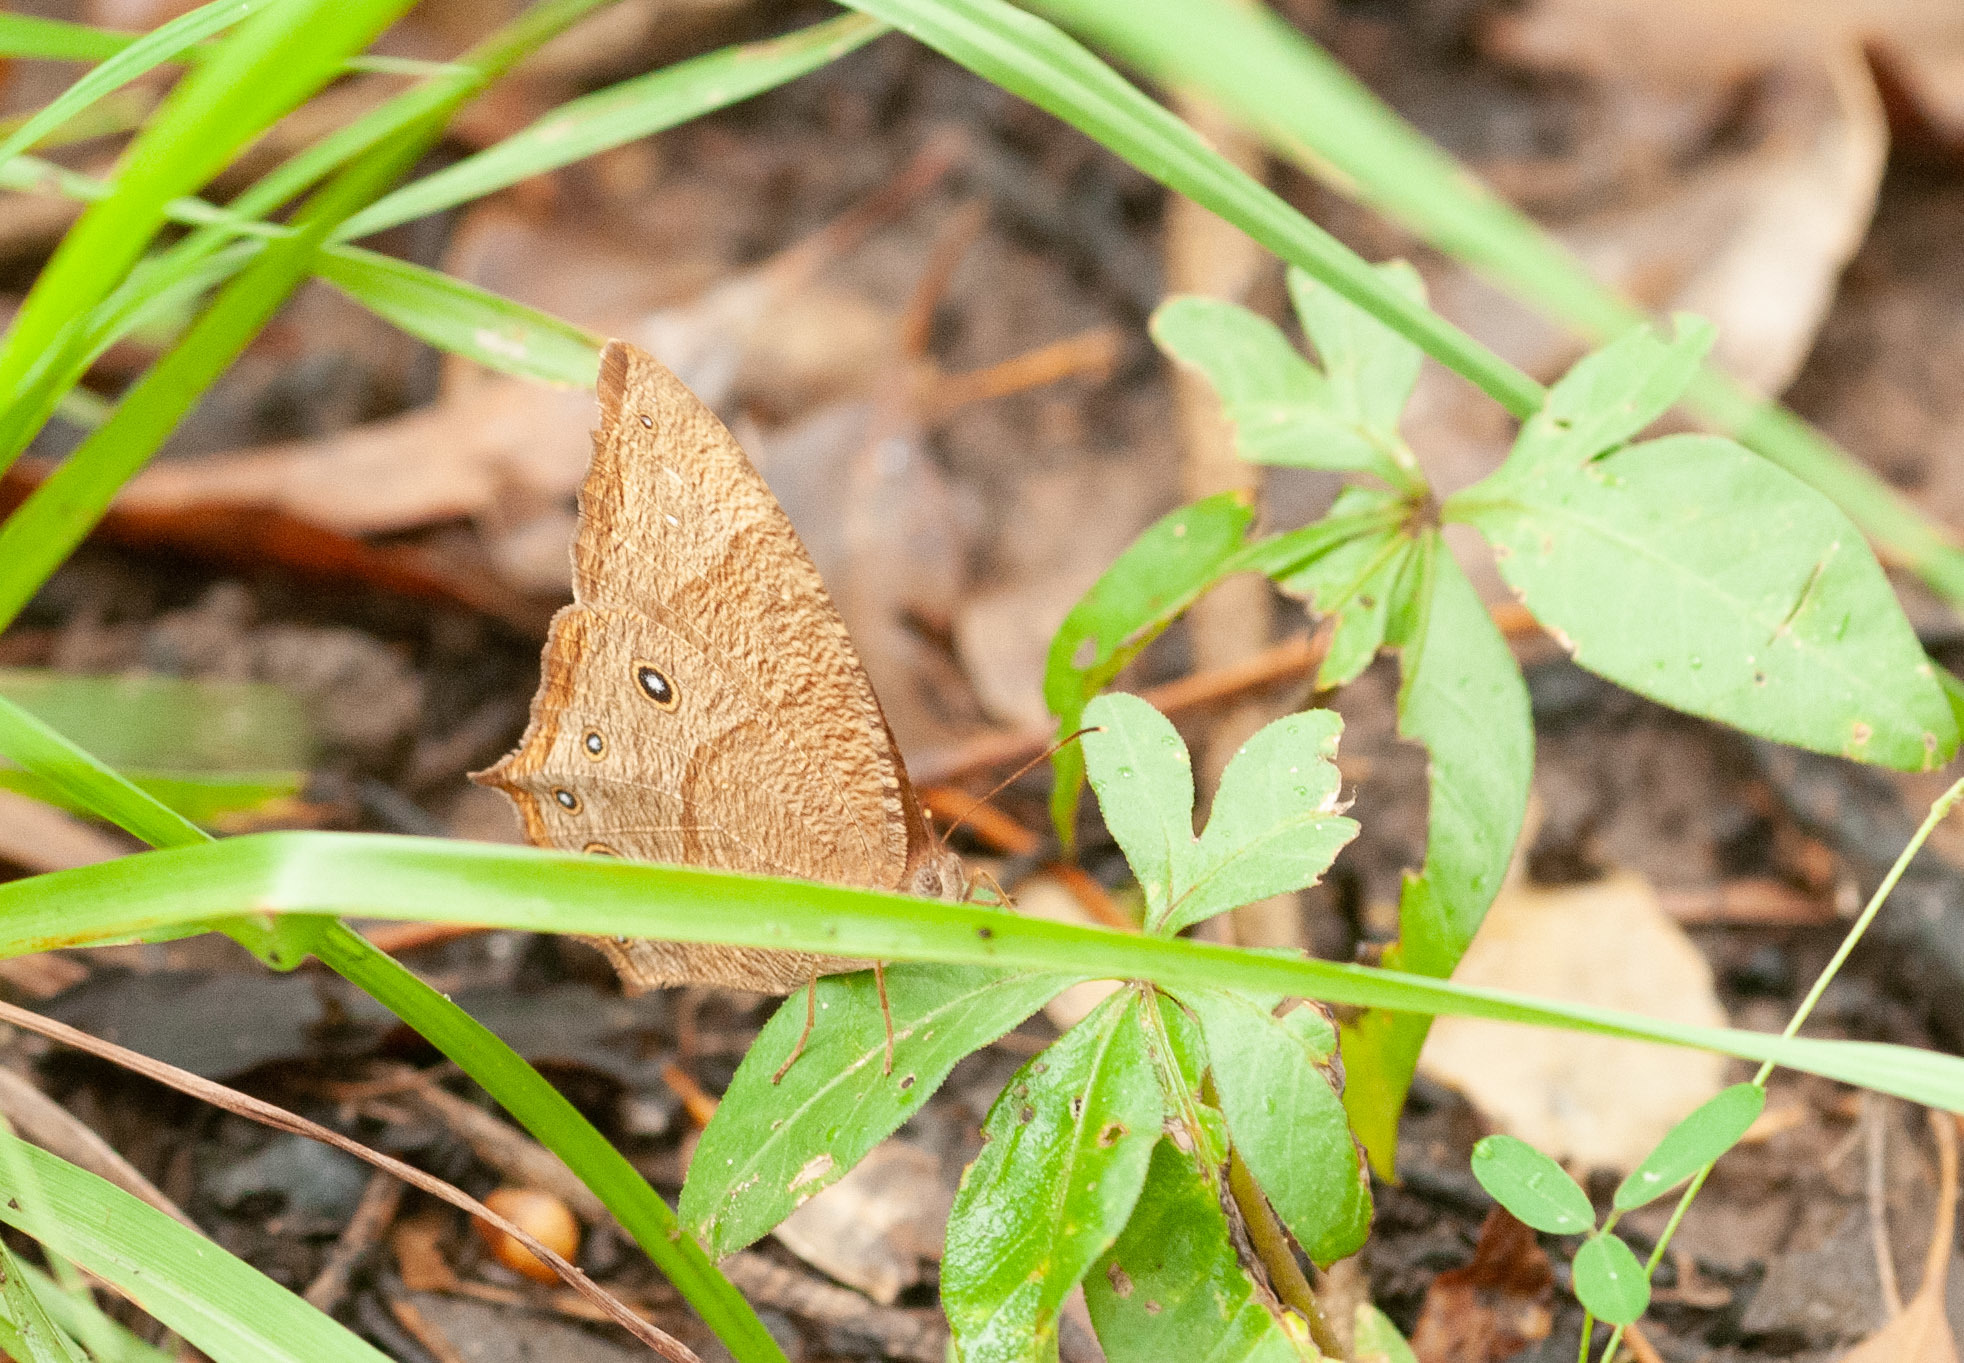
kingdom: Animalia
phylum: Arthropoda
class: Insecta
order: Lepidoptera
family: Nymphalidae
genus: Melanitis
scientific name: Melanitis leda
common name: Twilight brown
